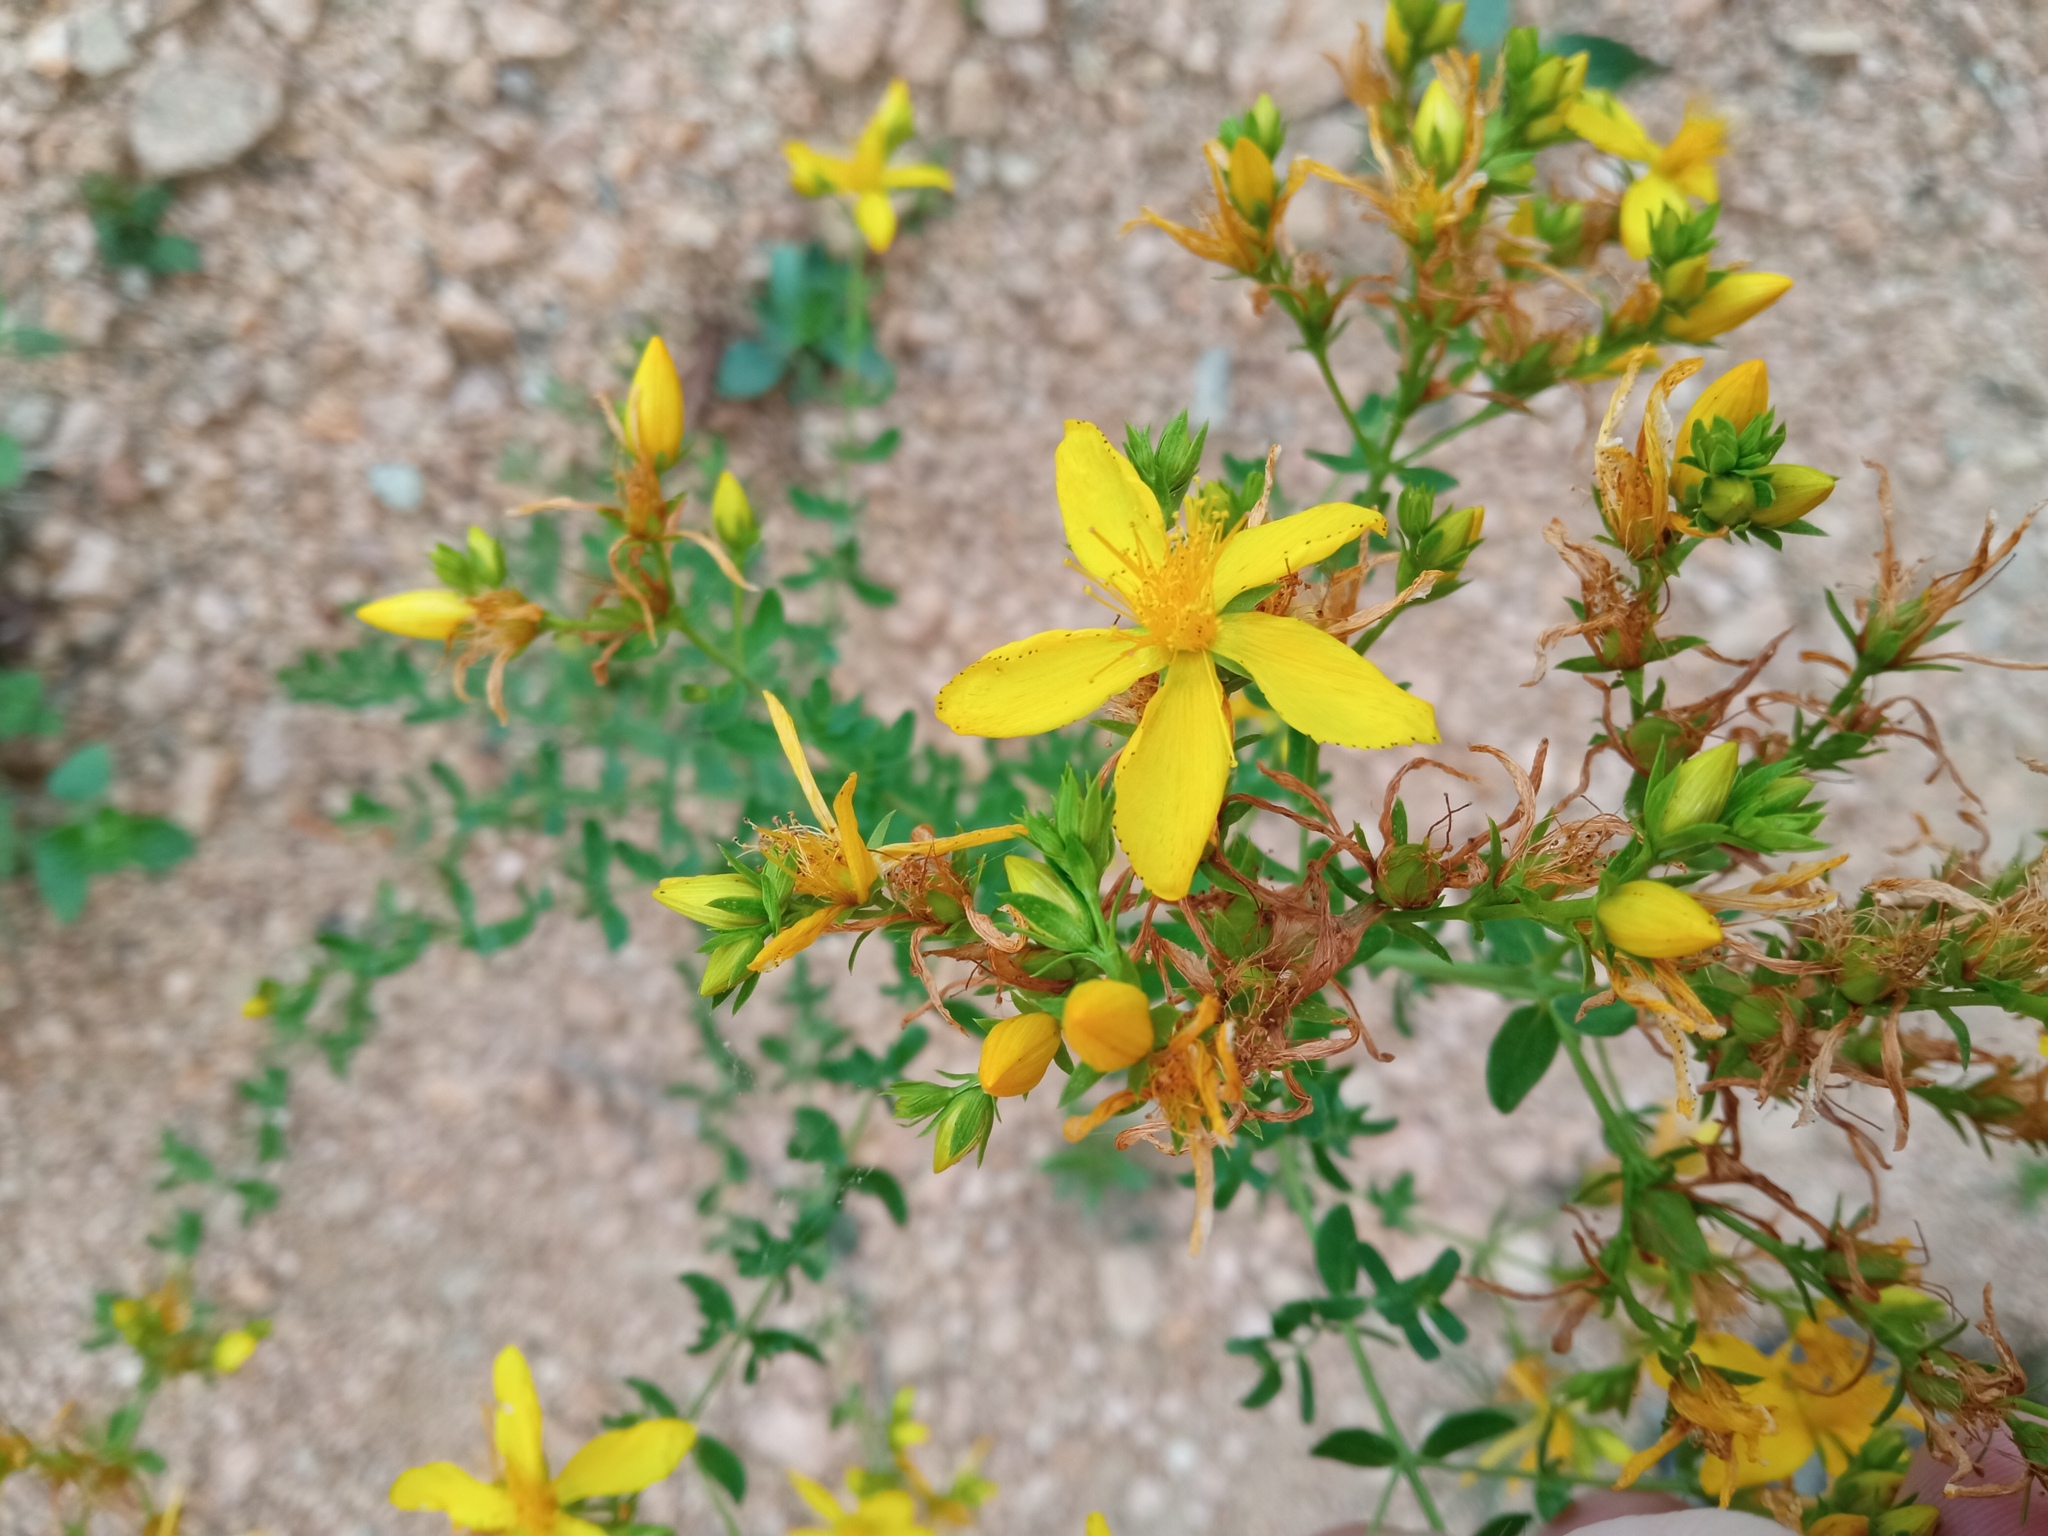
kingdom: Plantae
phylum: Tracheophyta
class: Magnoliopsida
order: Malpighiales
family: Hypericaceae
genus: Hypericum
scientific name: Hypericum perforatum
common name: Common st. johnswort
